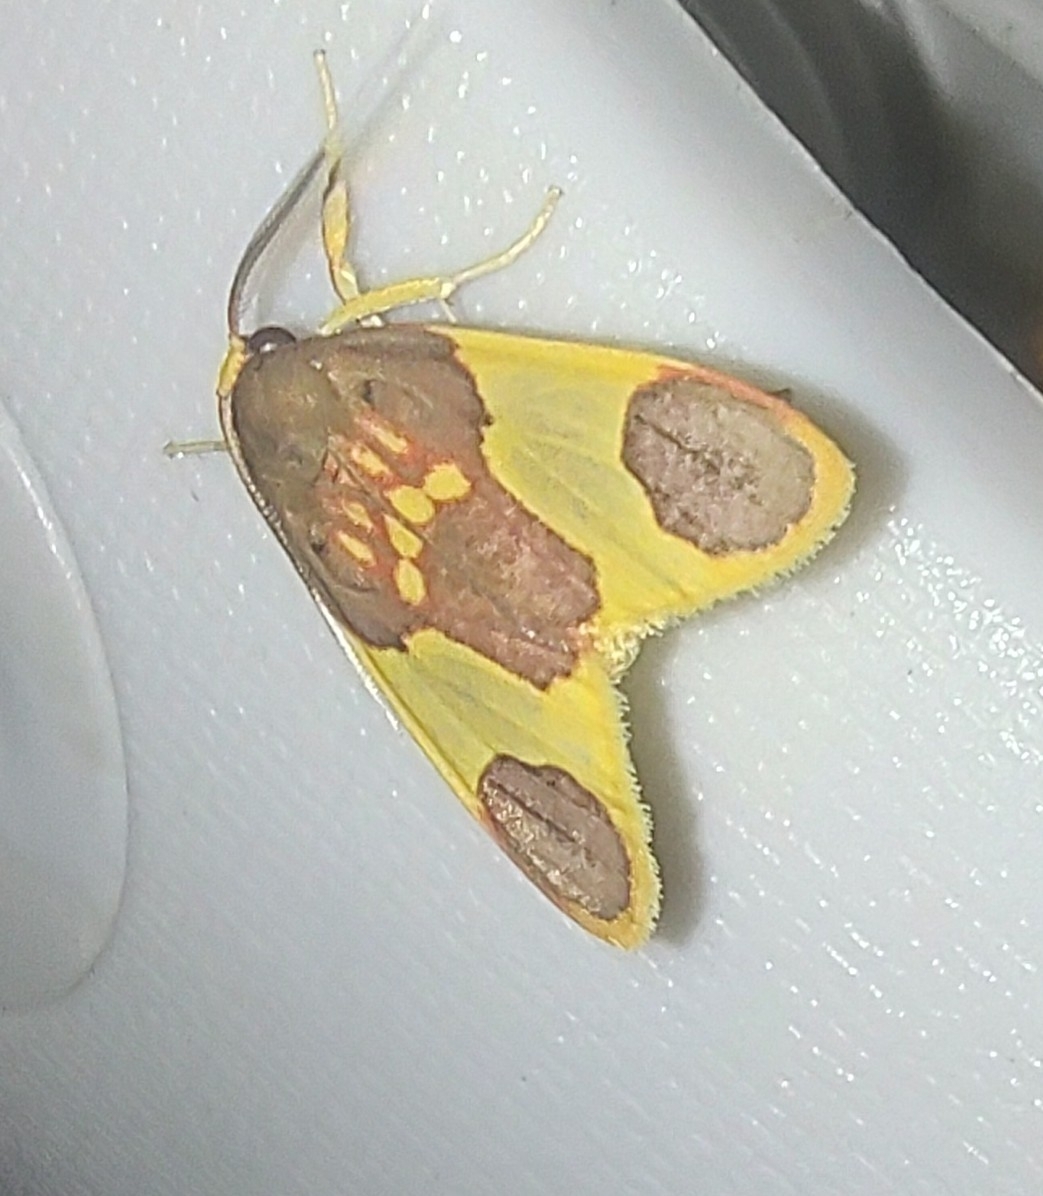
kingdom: Animalia
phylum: Arthropoda
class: Insecta
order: Lepidoptera
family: Erebidae
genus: Trichromia
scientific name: Trichromia
